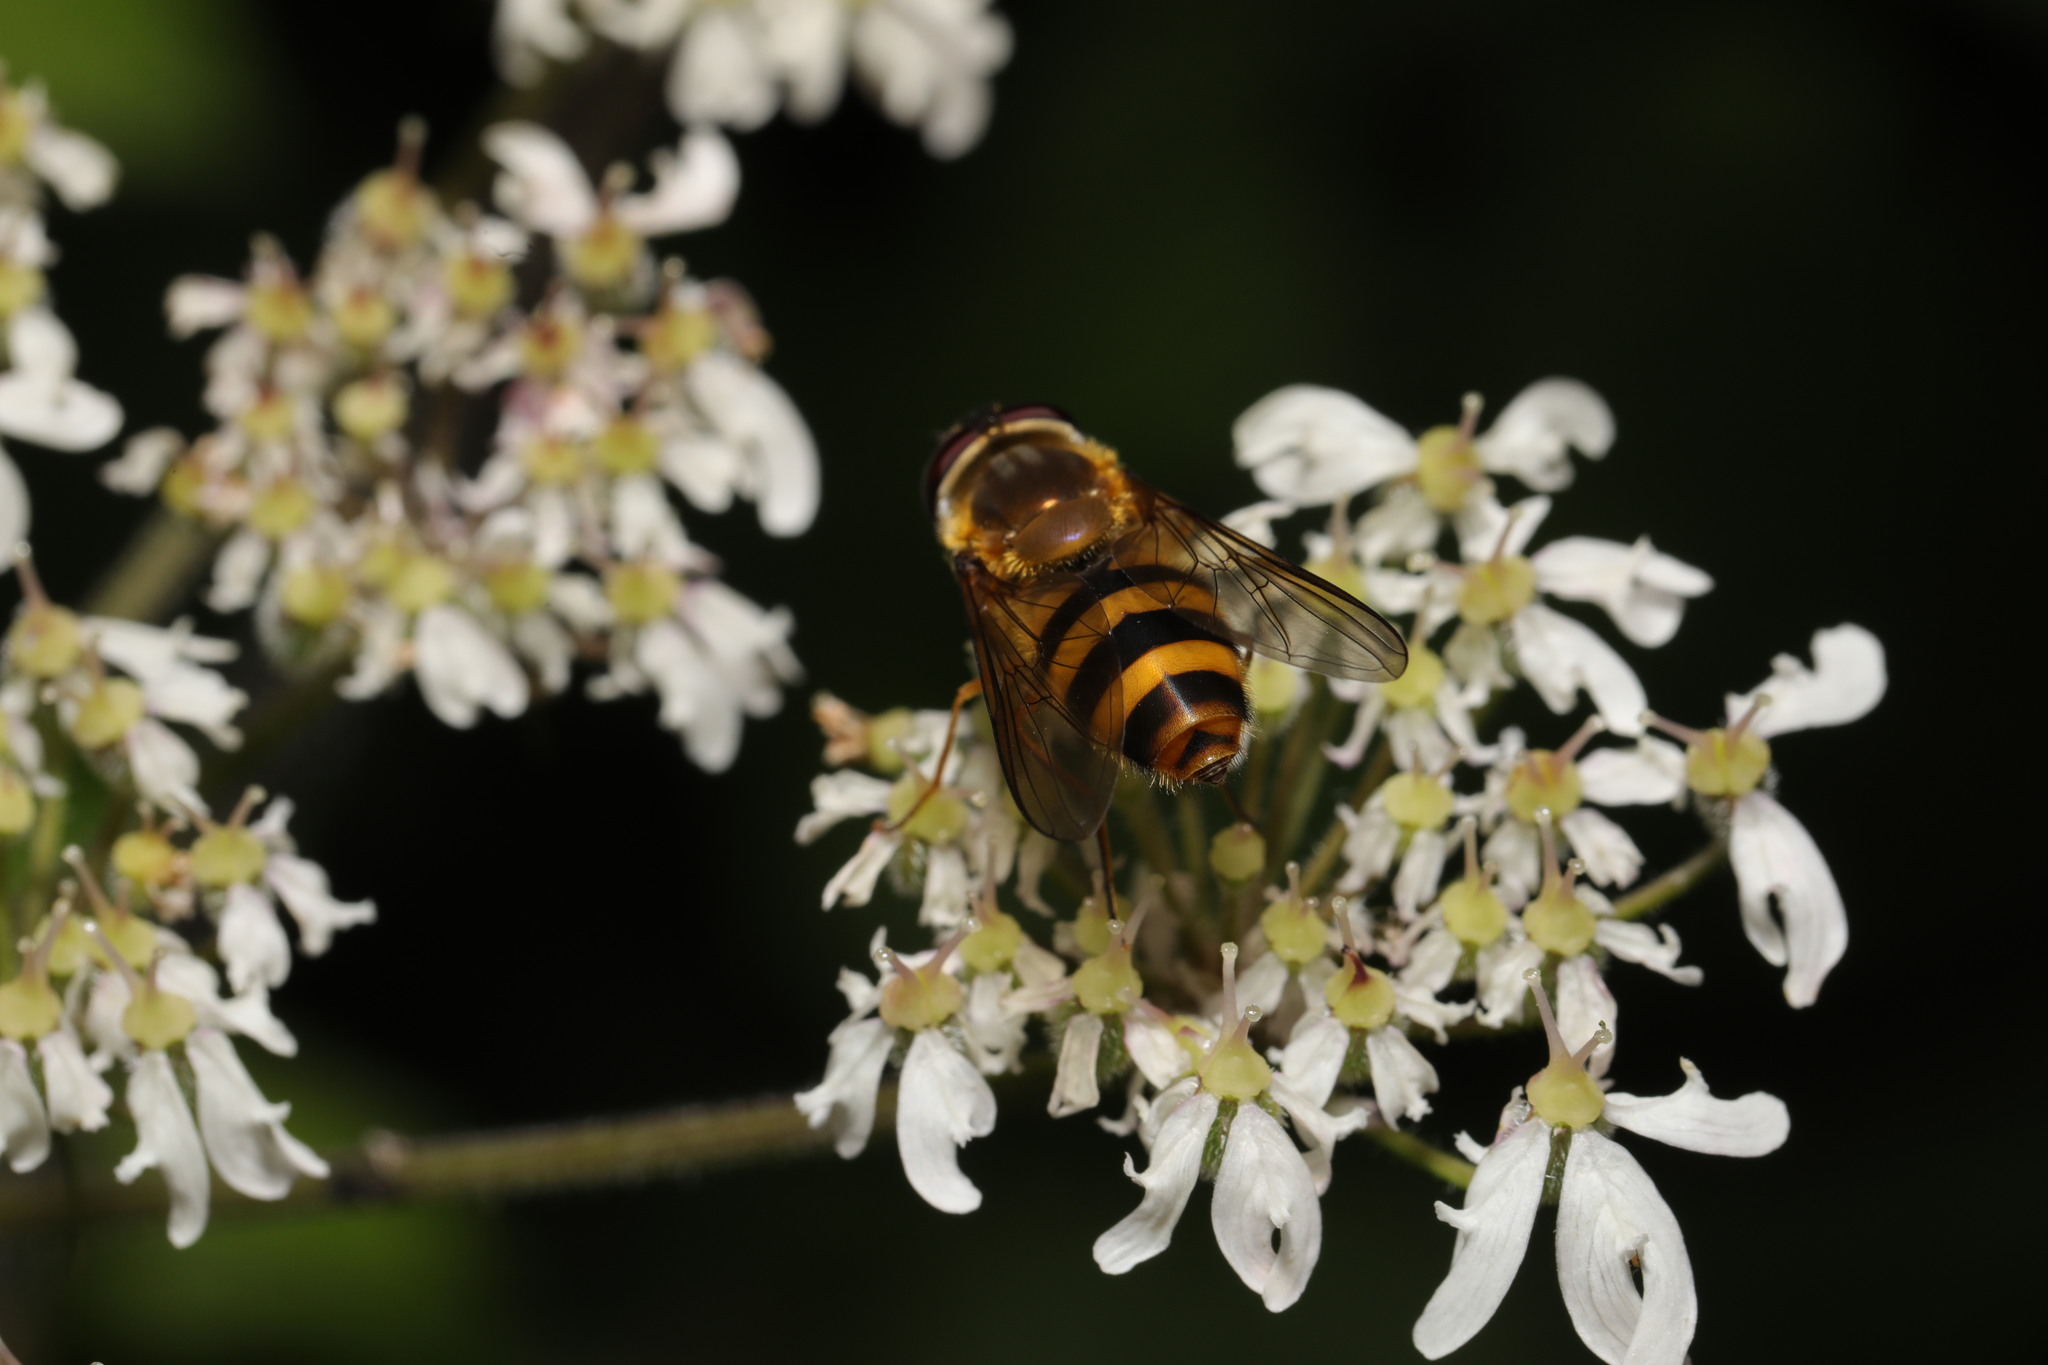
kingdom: Animalia
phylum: Arthropoda
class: Insecta
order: Diptera
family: Syrphidae
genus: Epistrophe
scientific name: Epistrophe grossulariae
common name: Black-horned smoothtail
